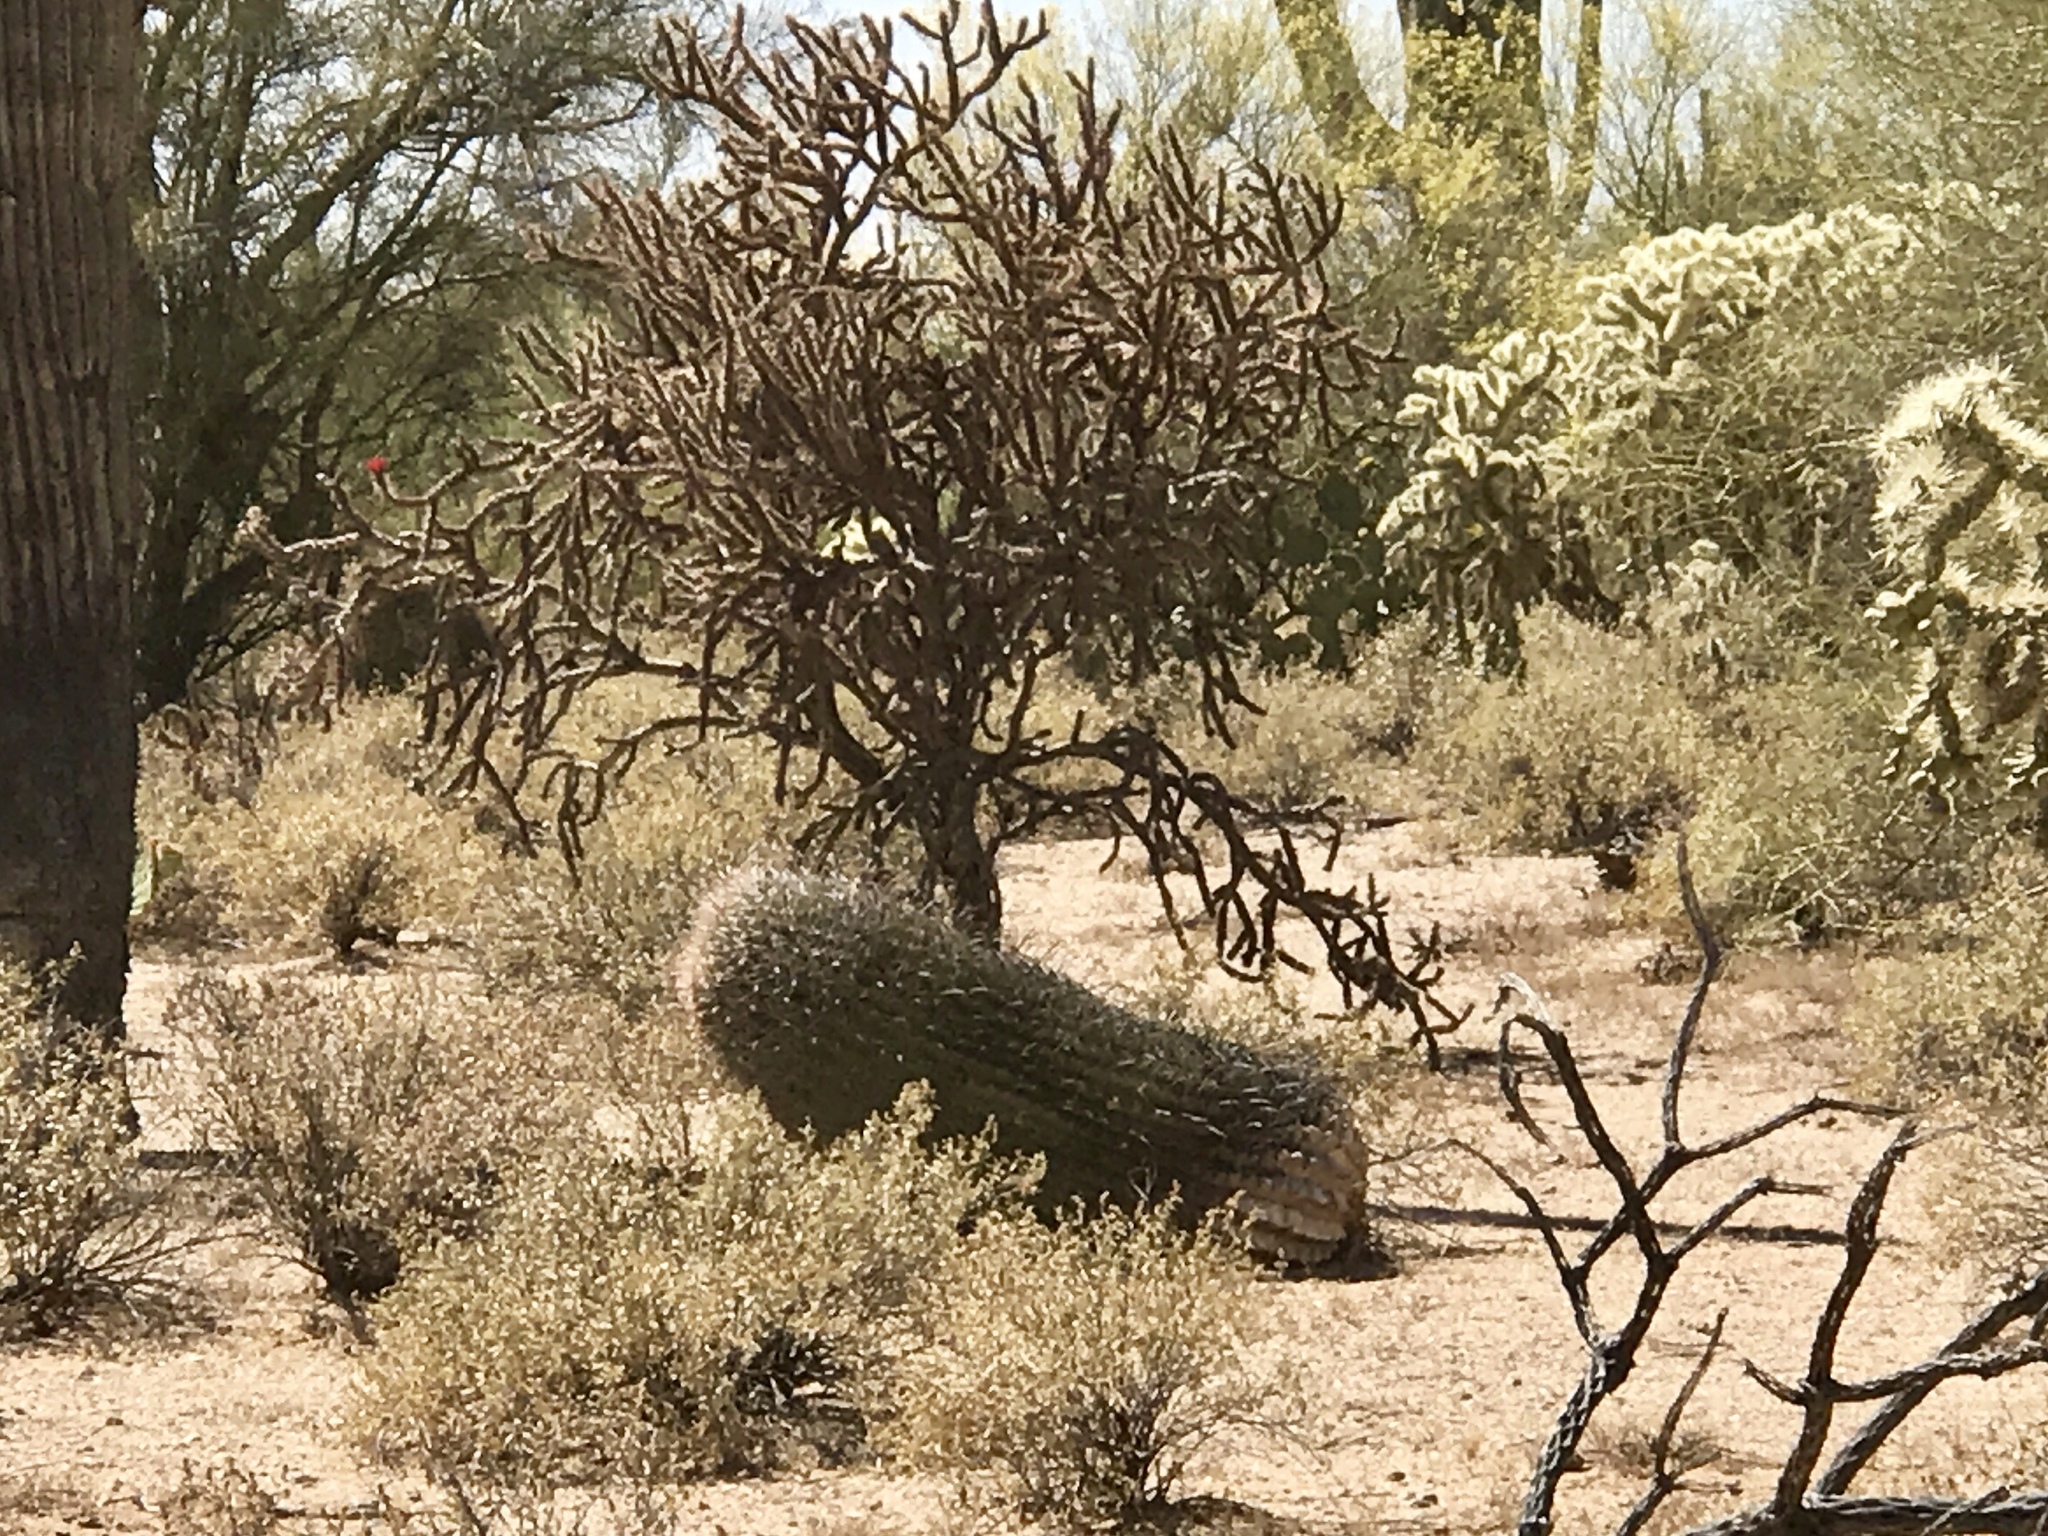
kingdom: Plantae
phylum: Tracheophyta
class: Magnoliopsida
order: Caryophyllales
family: Cactaceae
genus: Ferocactus
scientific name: Ferocactus wislizeni
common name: Candy barrel cactus
